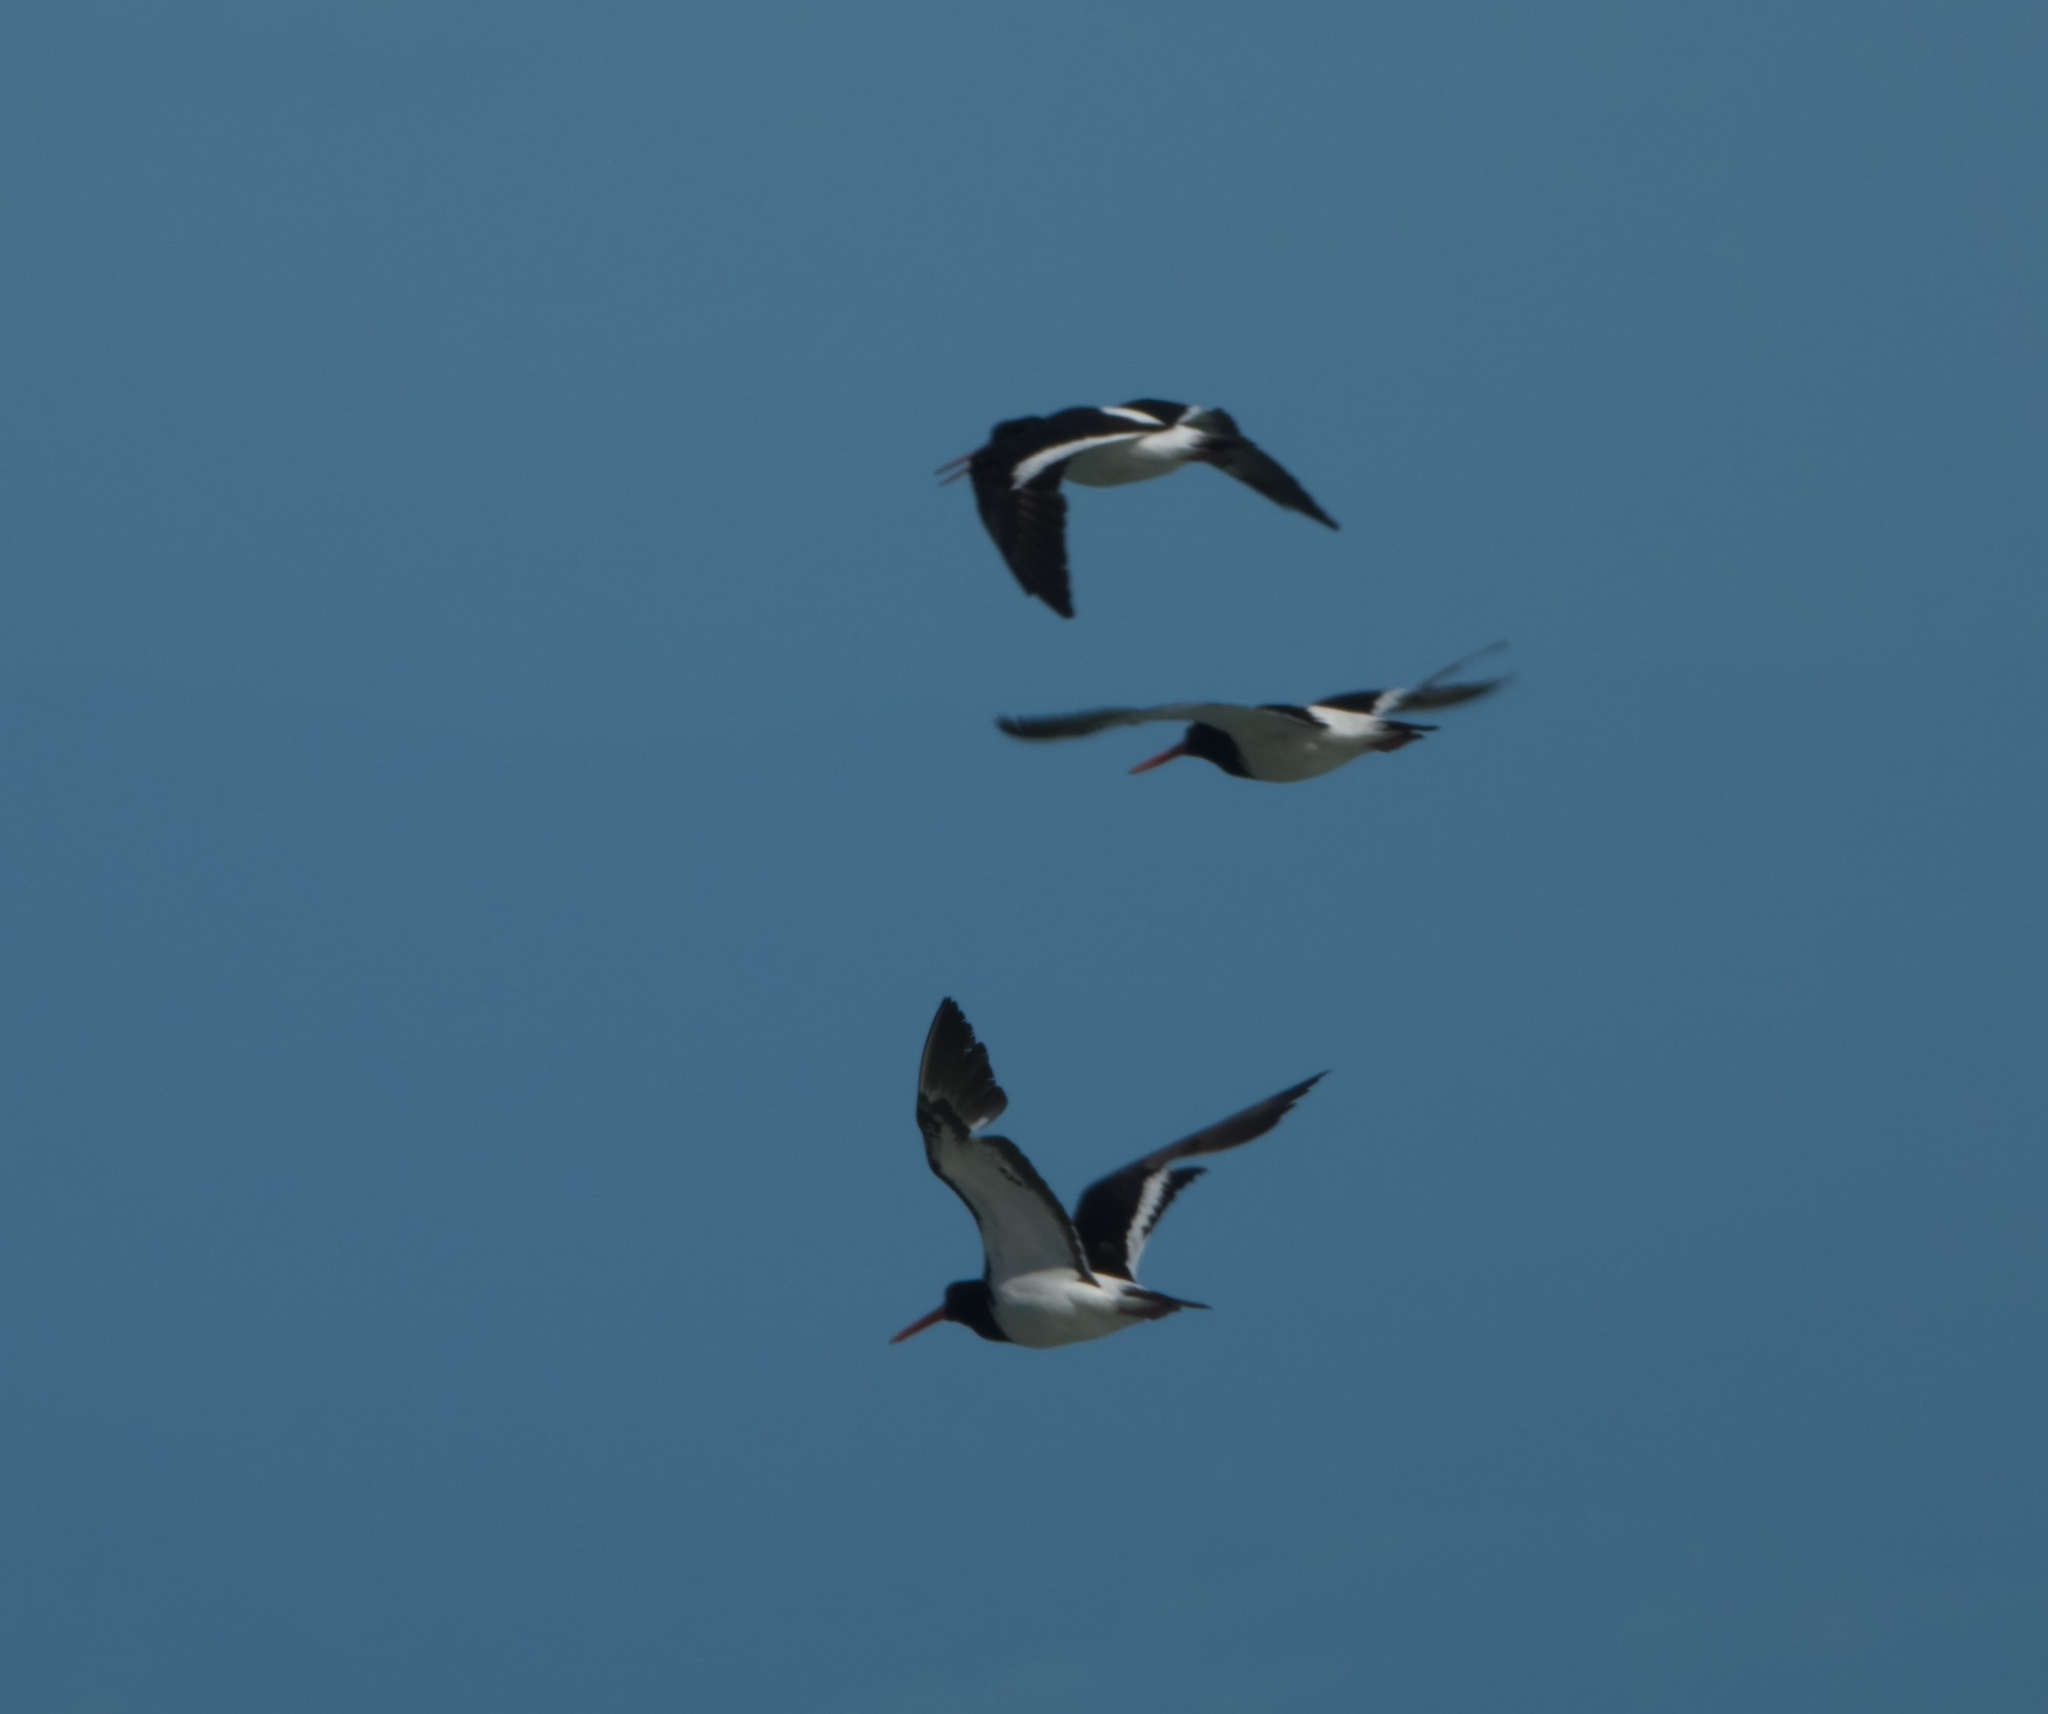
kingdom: Animalia
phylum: Chordata
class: Aves
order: Charadriiformes
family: Haematopodidae
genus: Haematopus
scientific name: Haematopus finschi
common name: South island oystercatcher
